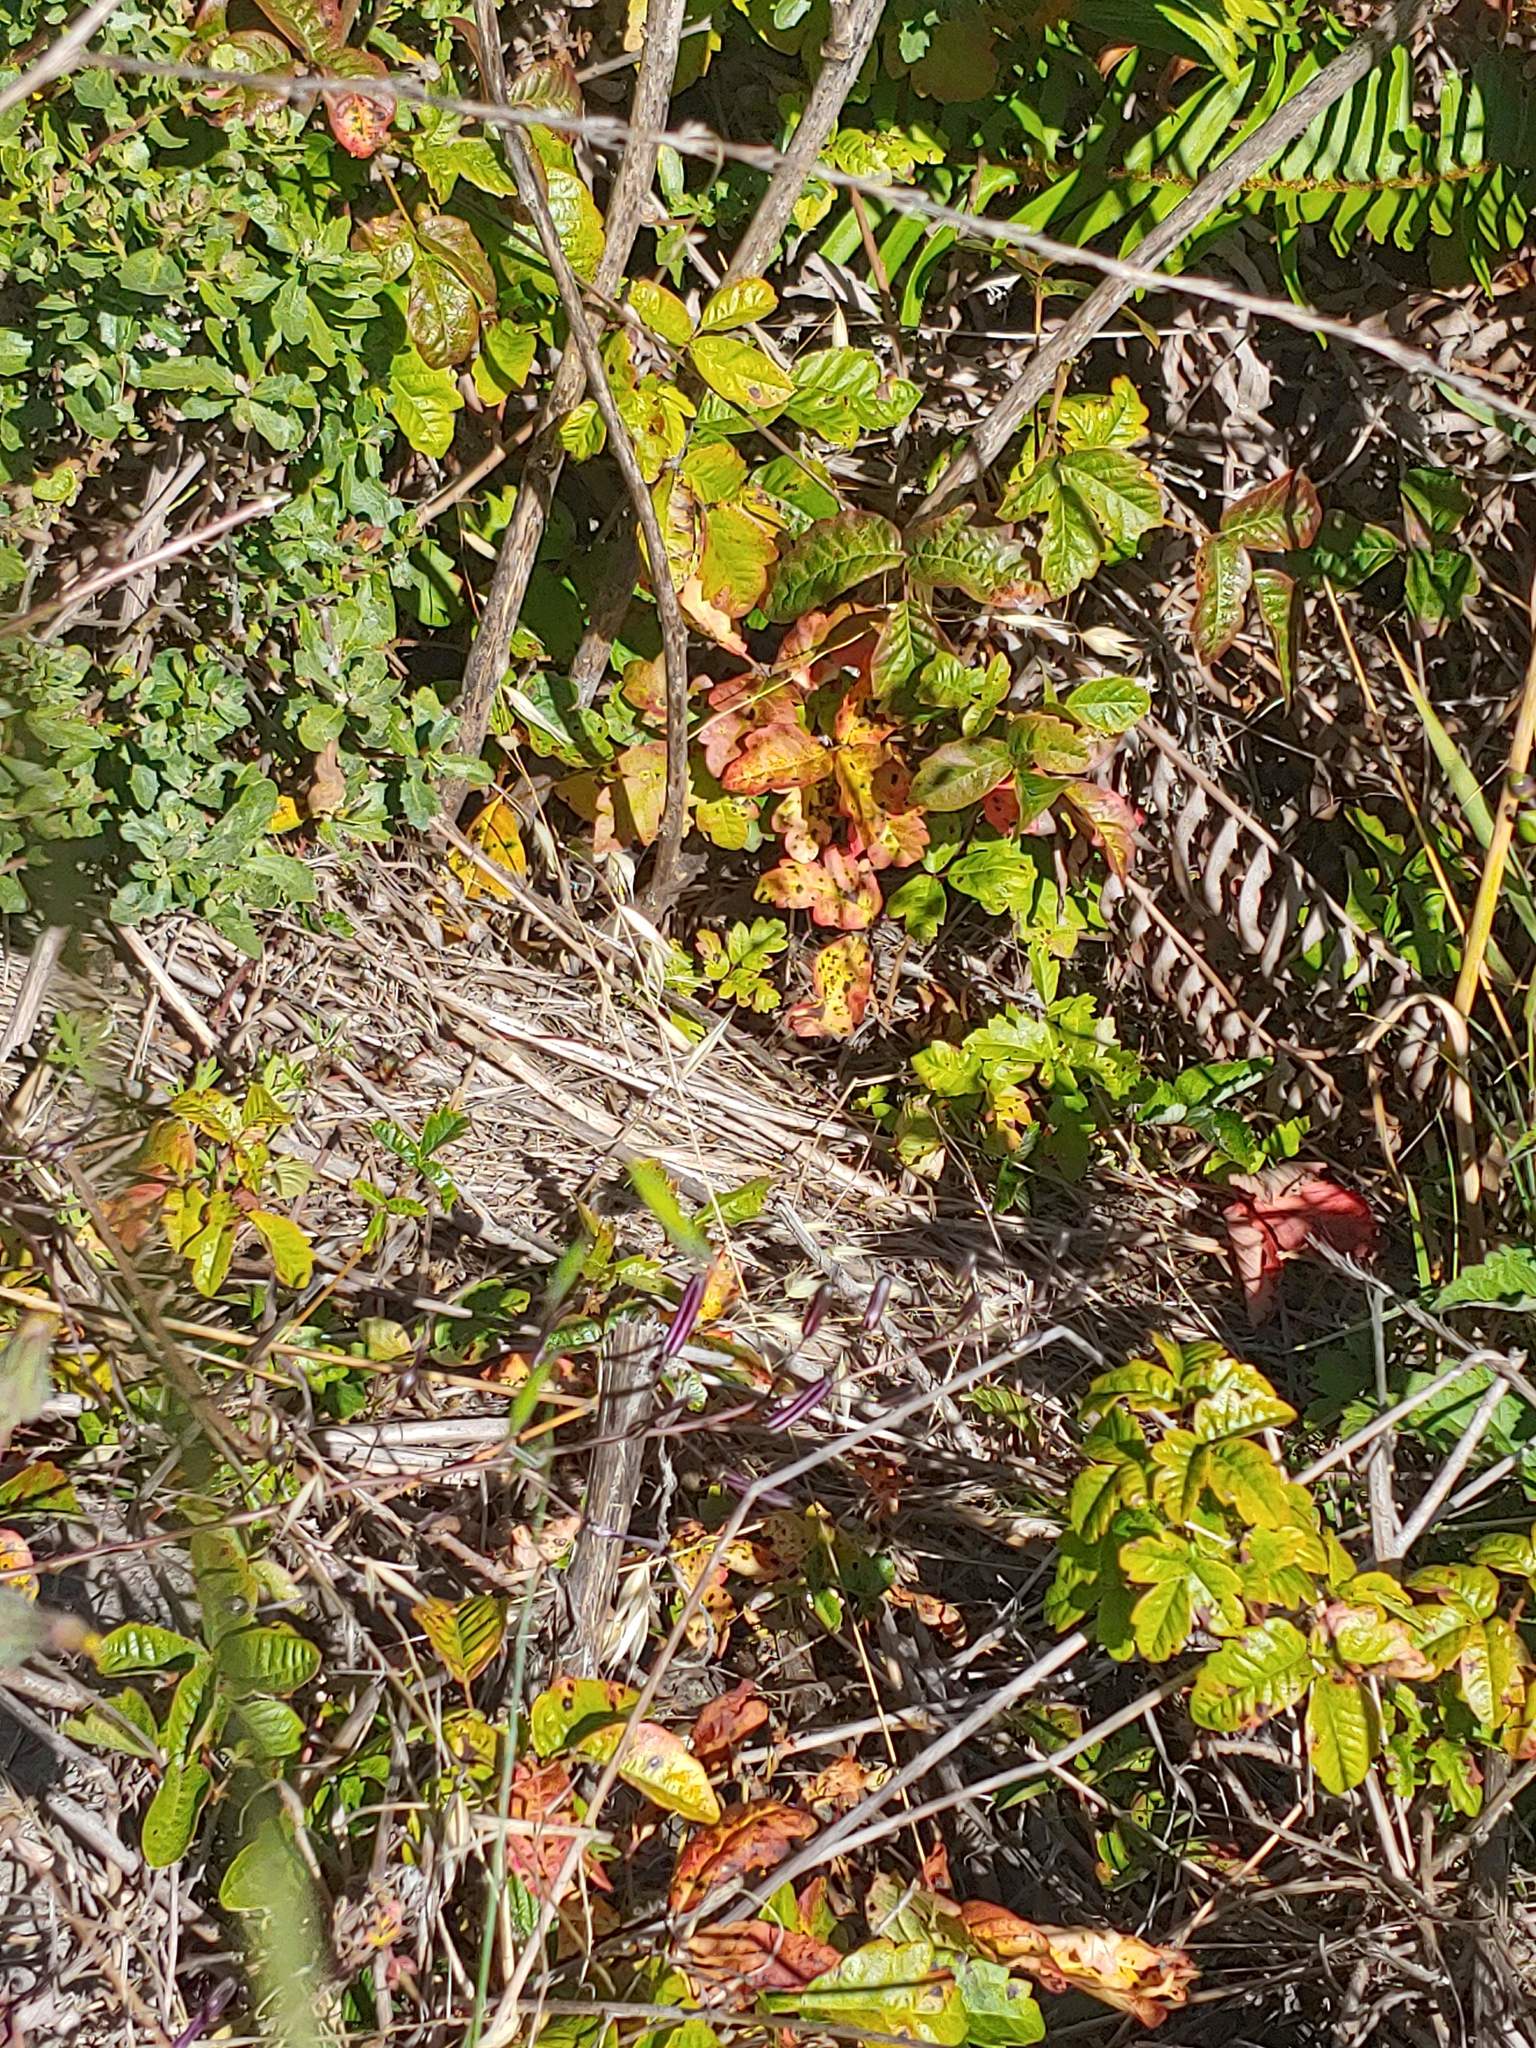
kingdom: Plantae
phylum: Tracheophyta
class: Magnoliopsida
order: Sapindales
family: Anacardiaceae
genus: Toxicodendron
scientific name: Toxicodendron diversilobum
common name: Pacific poison-oak
